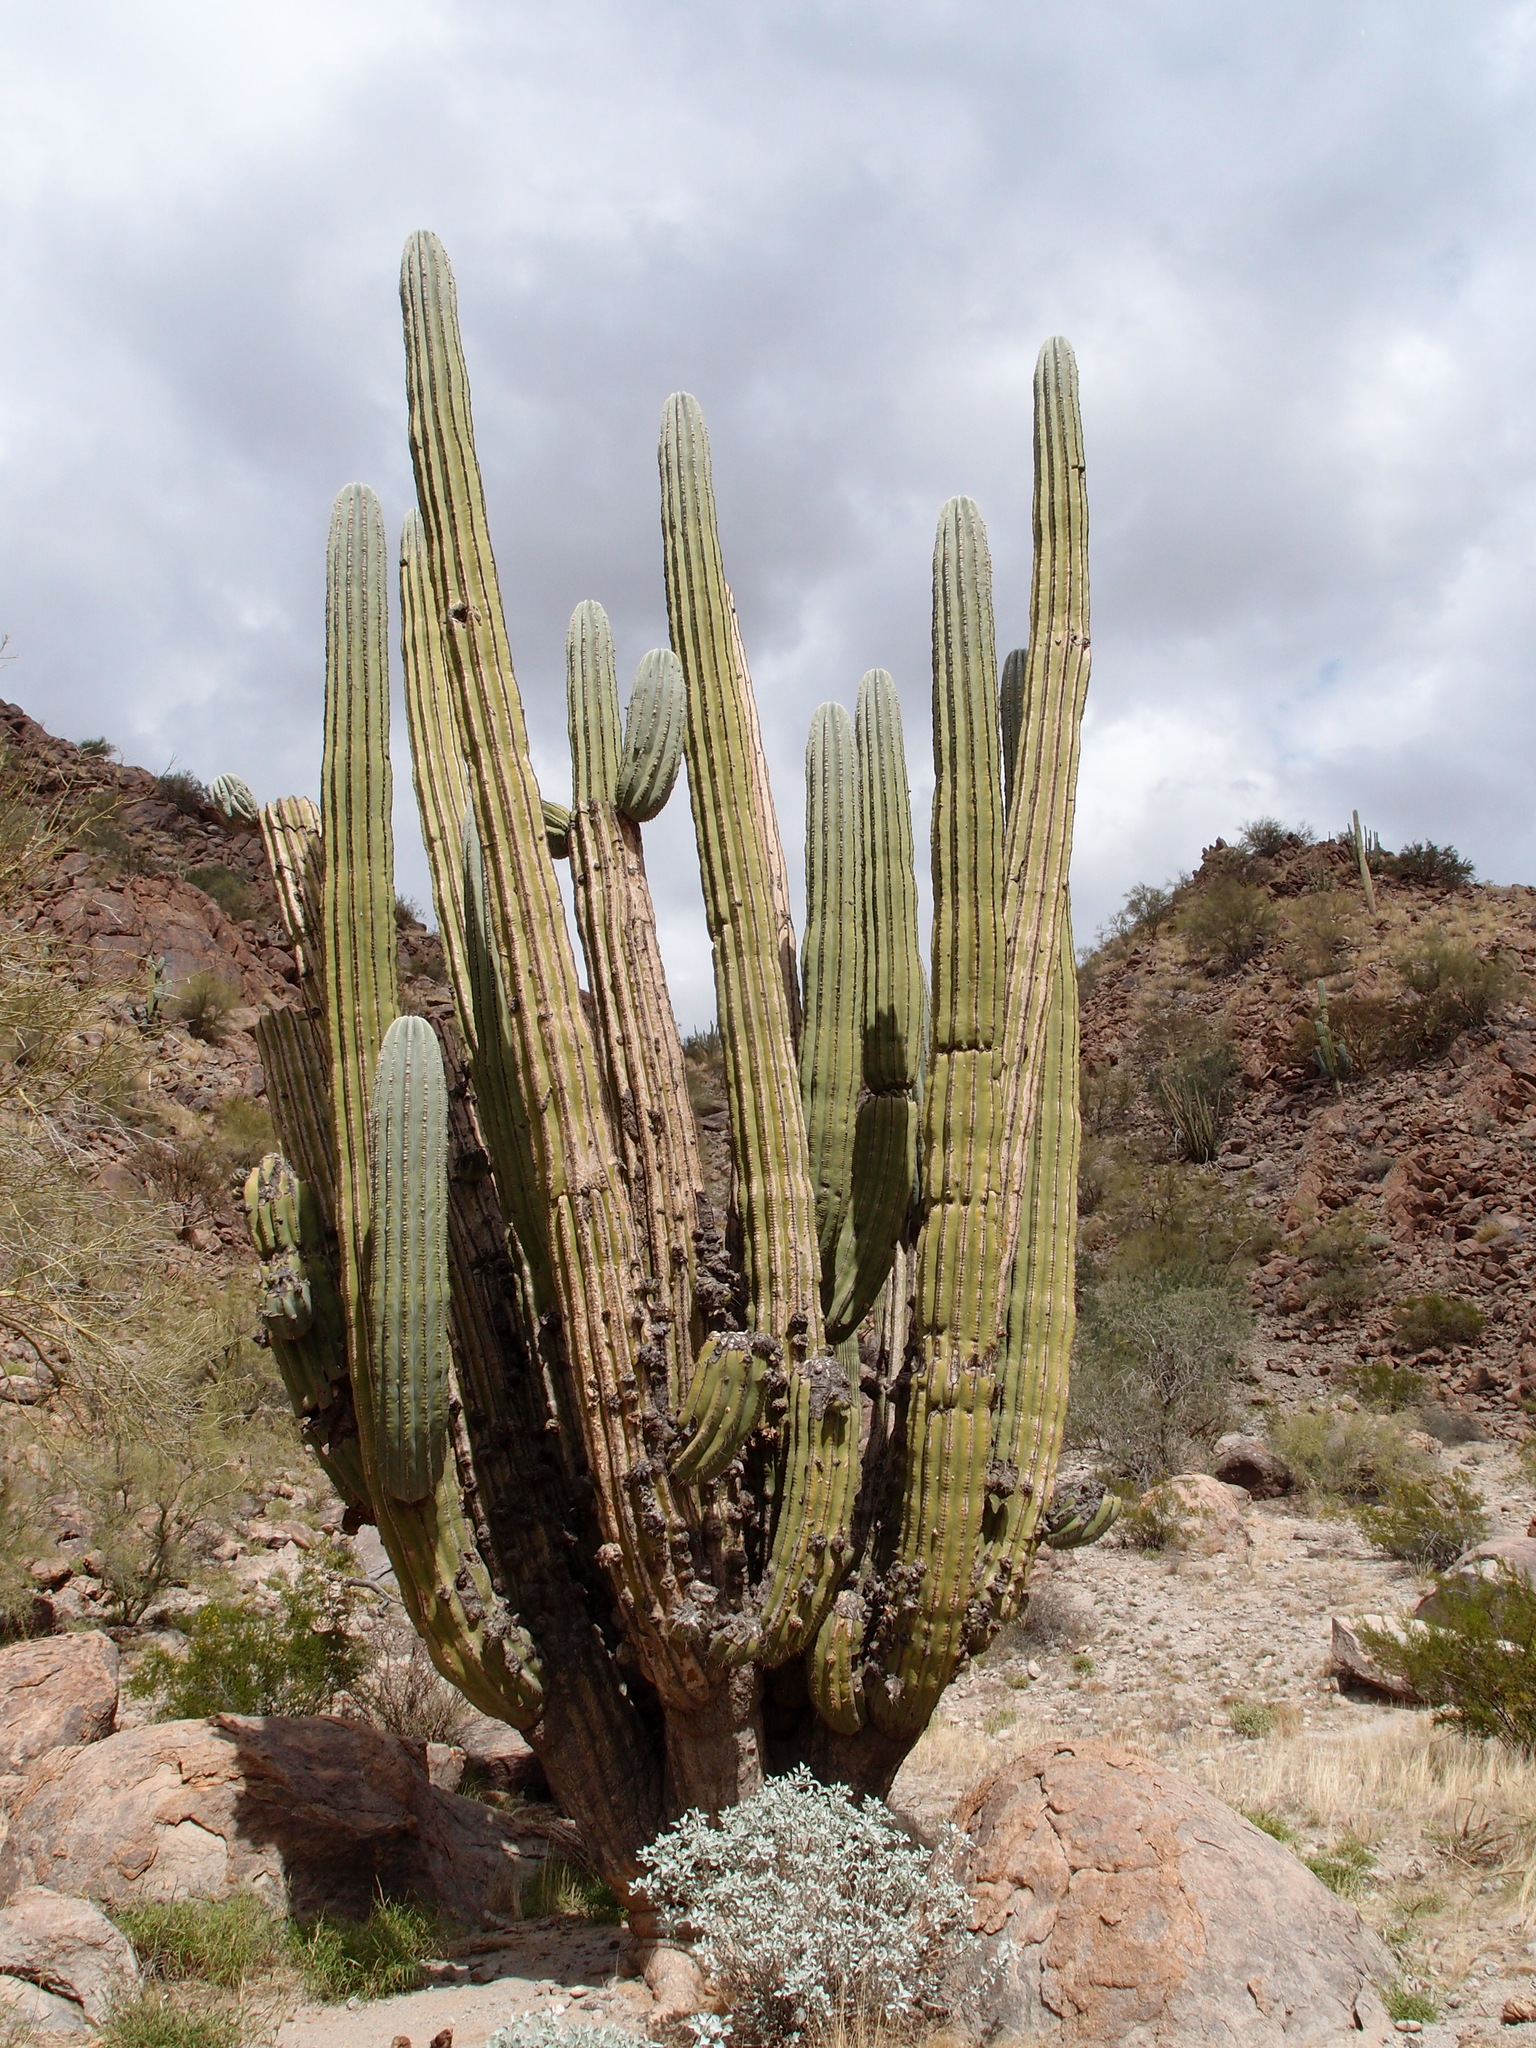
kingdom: Plantae
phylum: Tracheophyta
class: Magnoliopsida
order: Caryophyllales
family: Cactaceae
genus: Pachycereus
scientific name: Pachycereus pringlei
